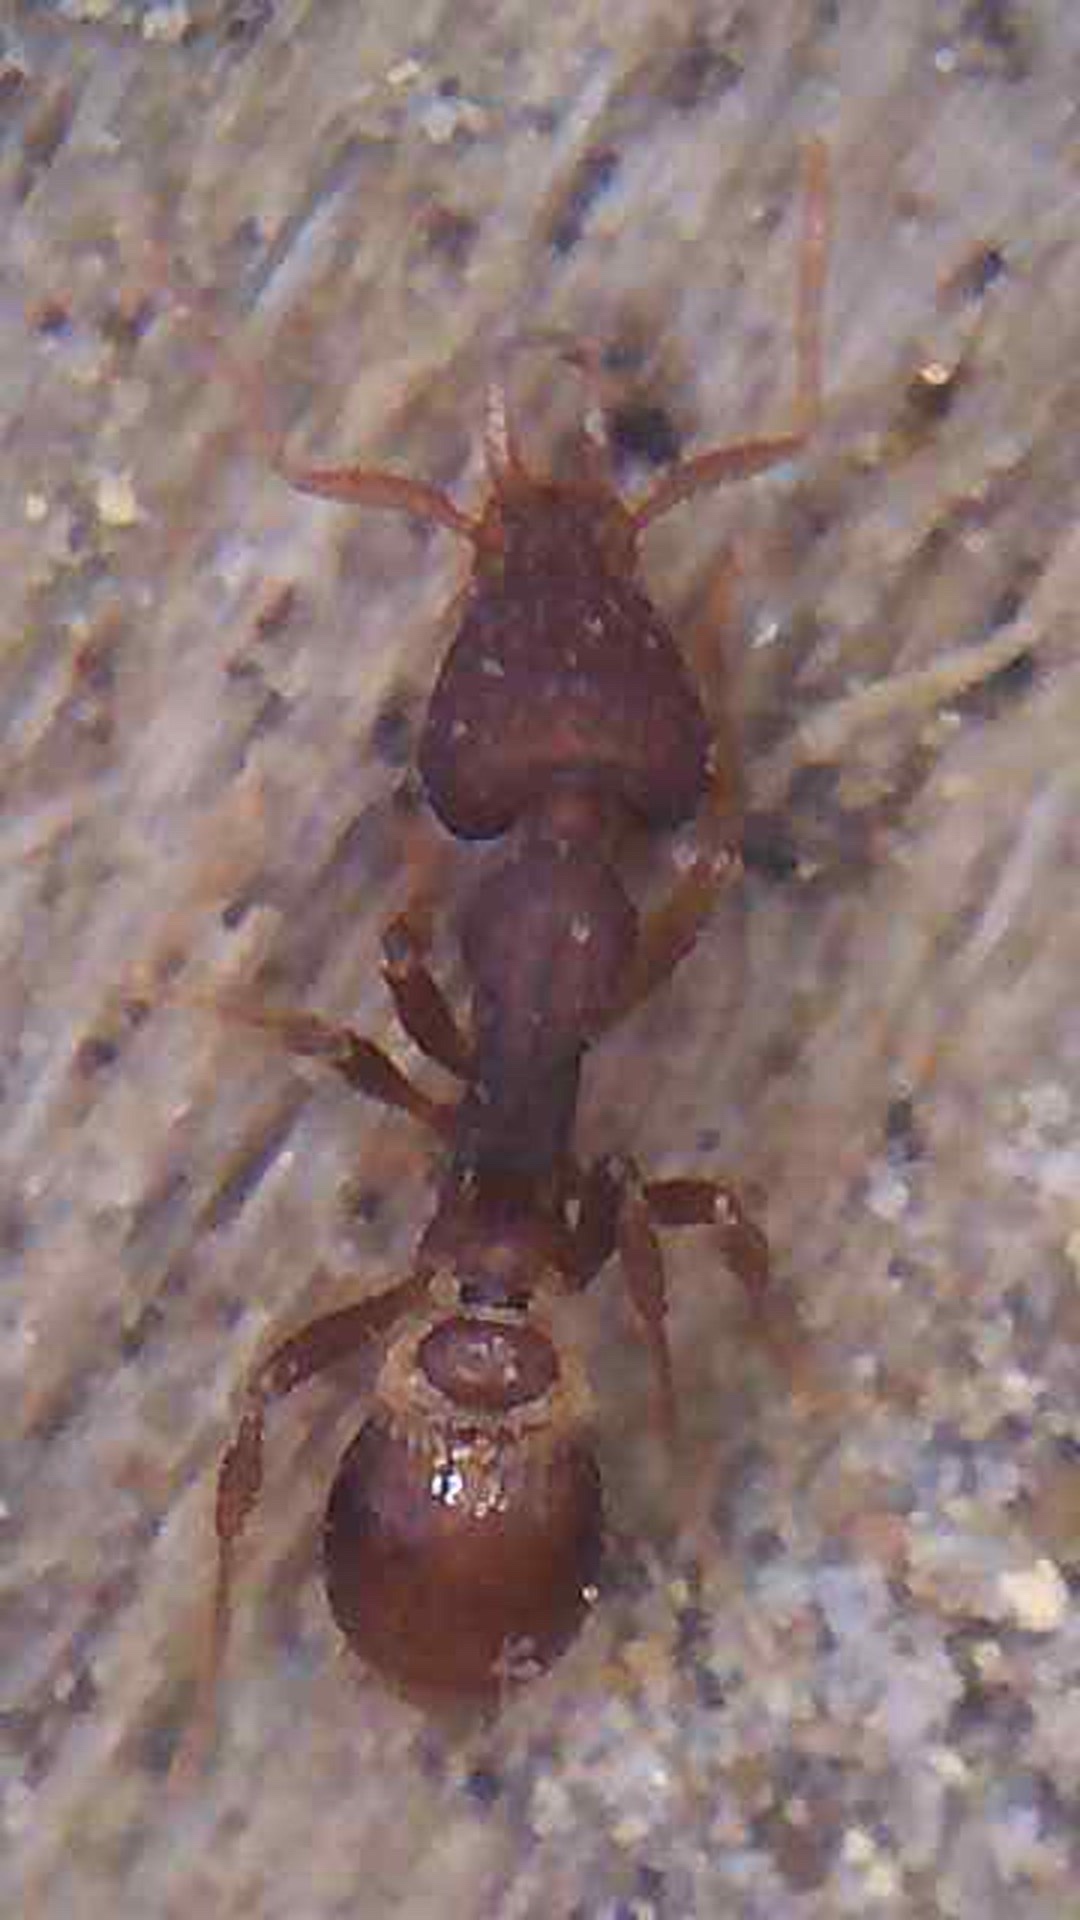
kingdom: Animalia
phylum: Arthropoda
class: Insecta
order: Hymenoptera
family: Formicidae
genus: Strumigenys
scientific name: Strumigenys perplexa
